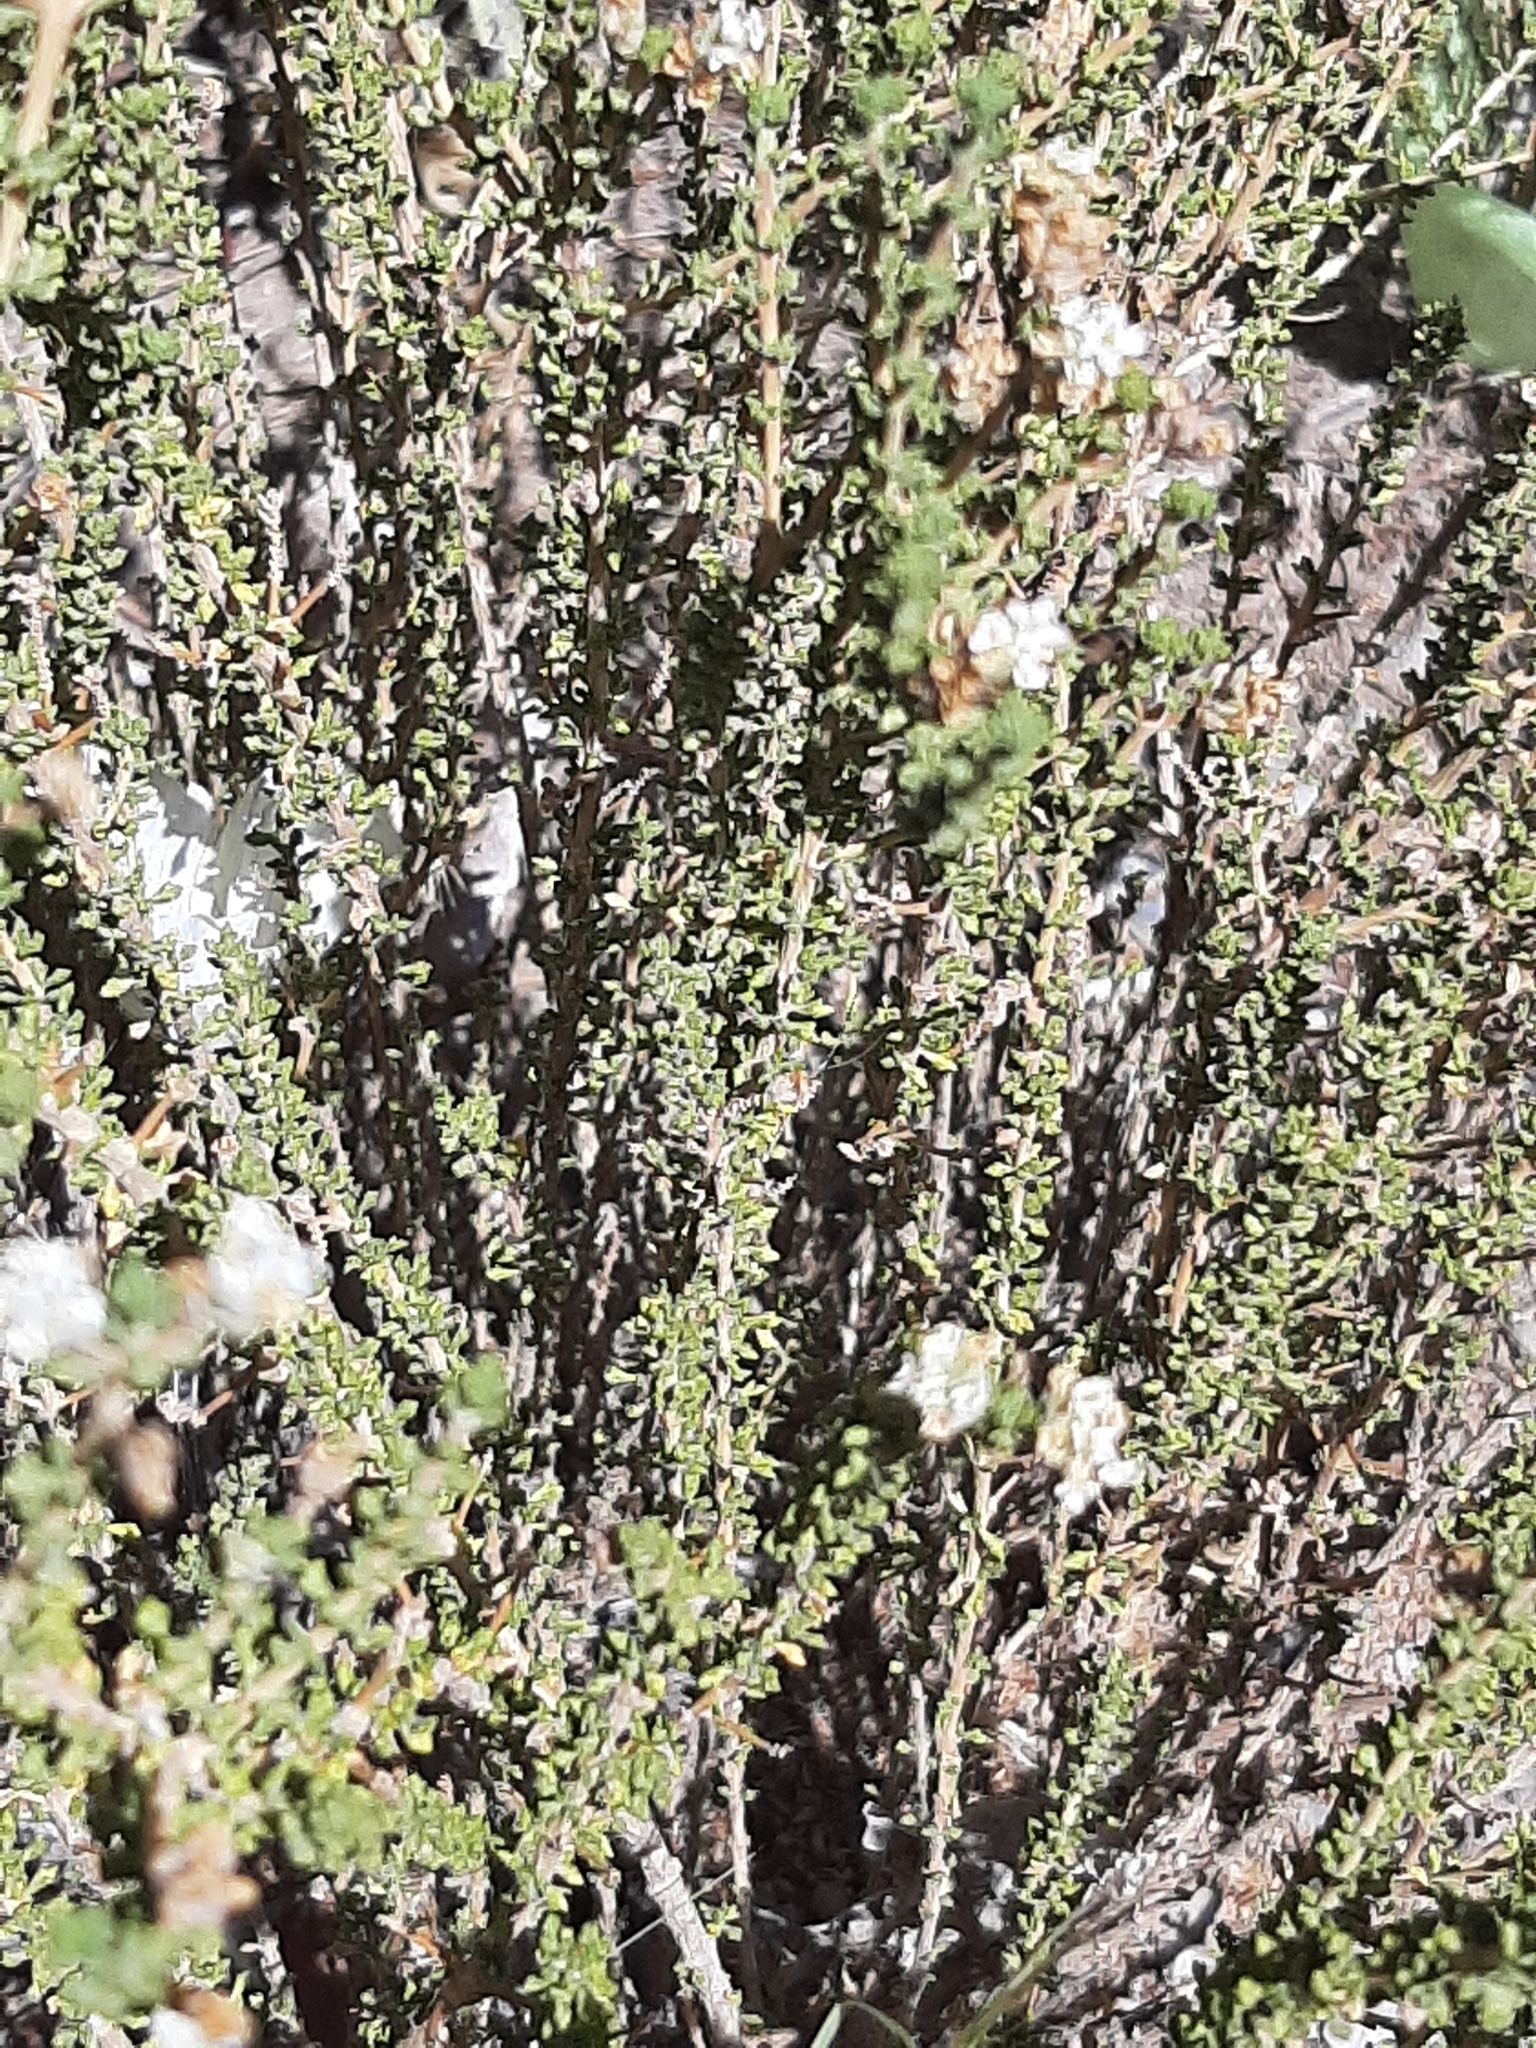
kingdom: Plantae
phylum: Tracheophyta
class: Magnoliopsida
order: Lamiales
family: Verbenaceae
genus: Acantholippia
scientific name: Acantholippia seriphioides
